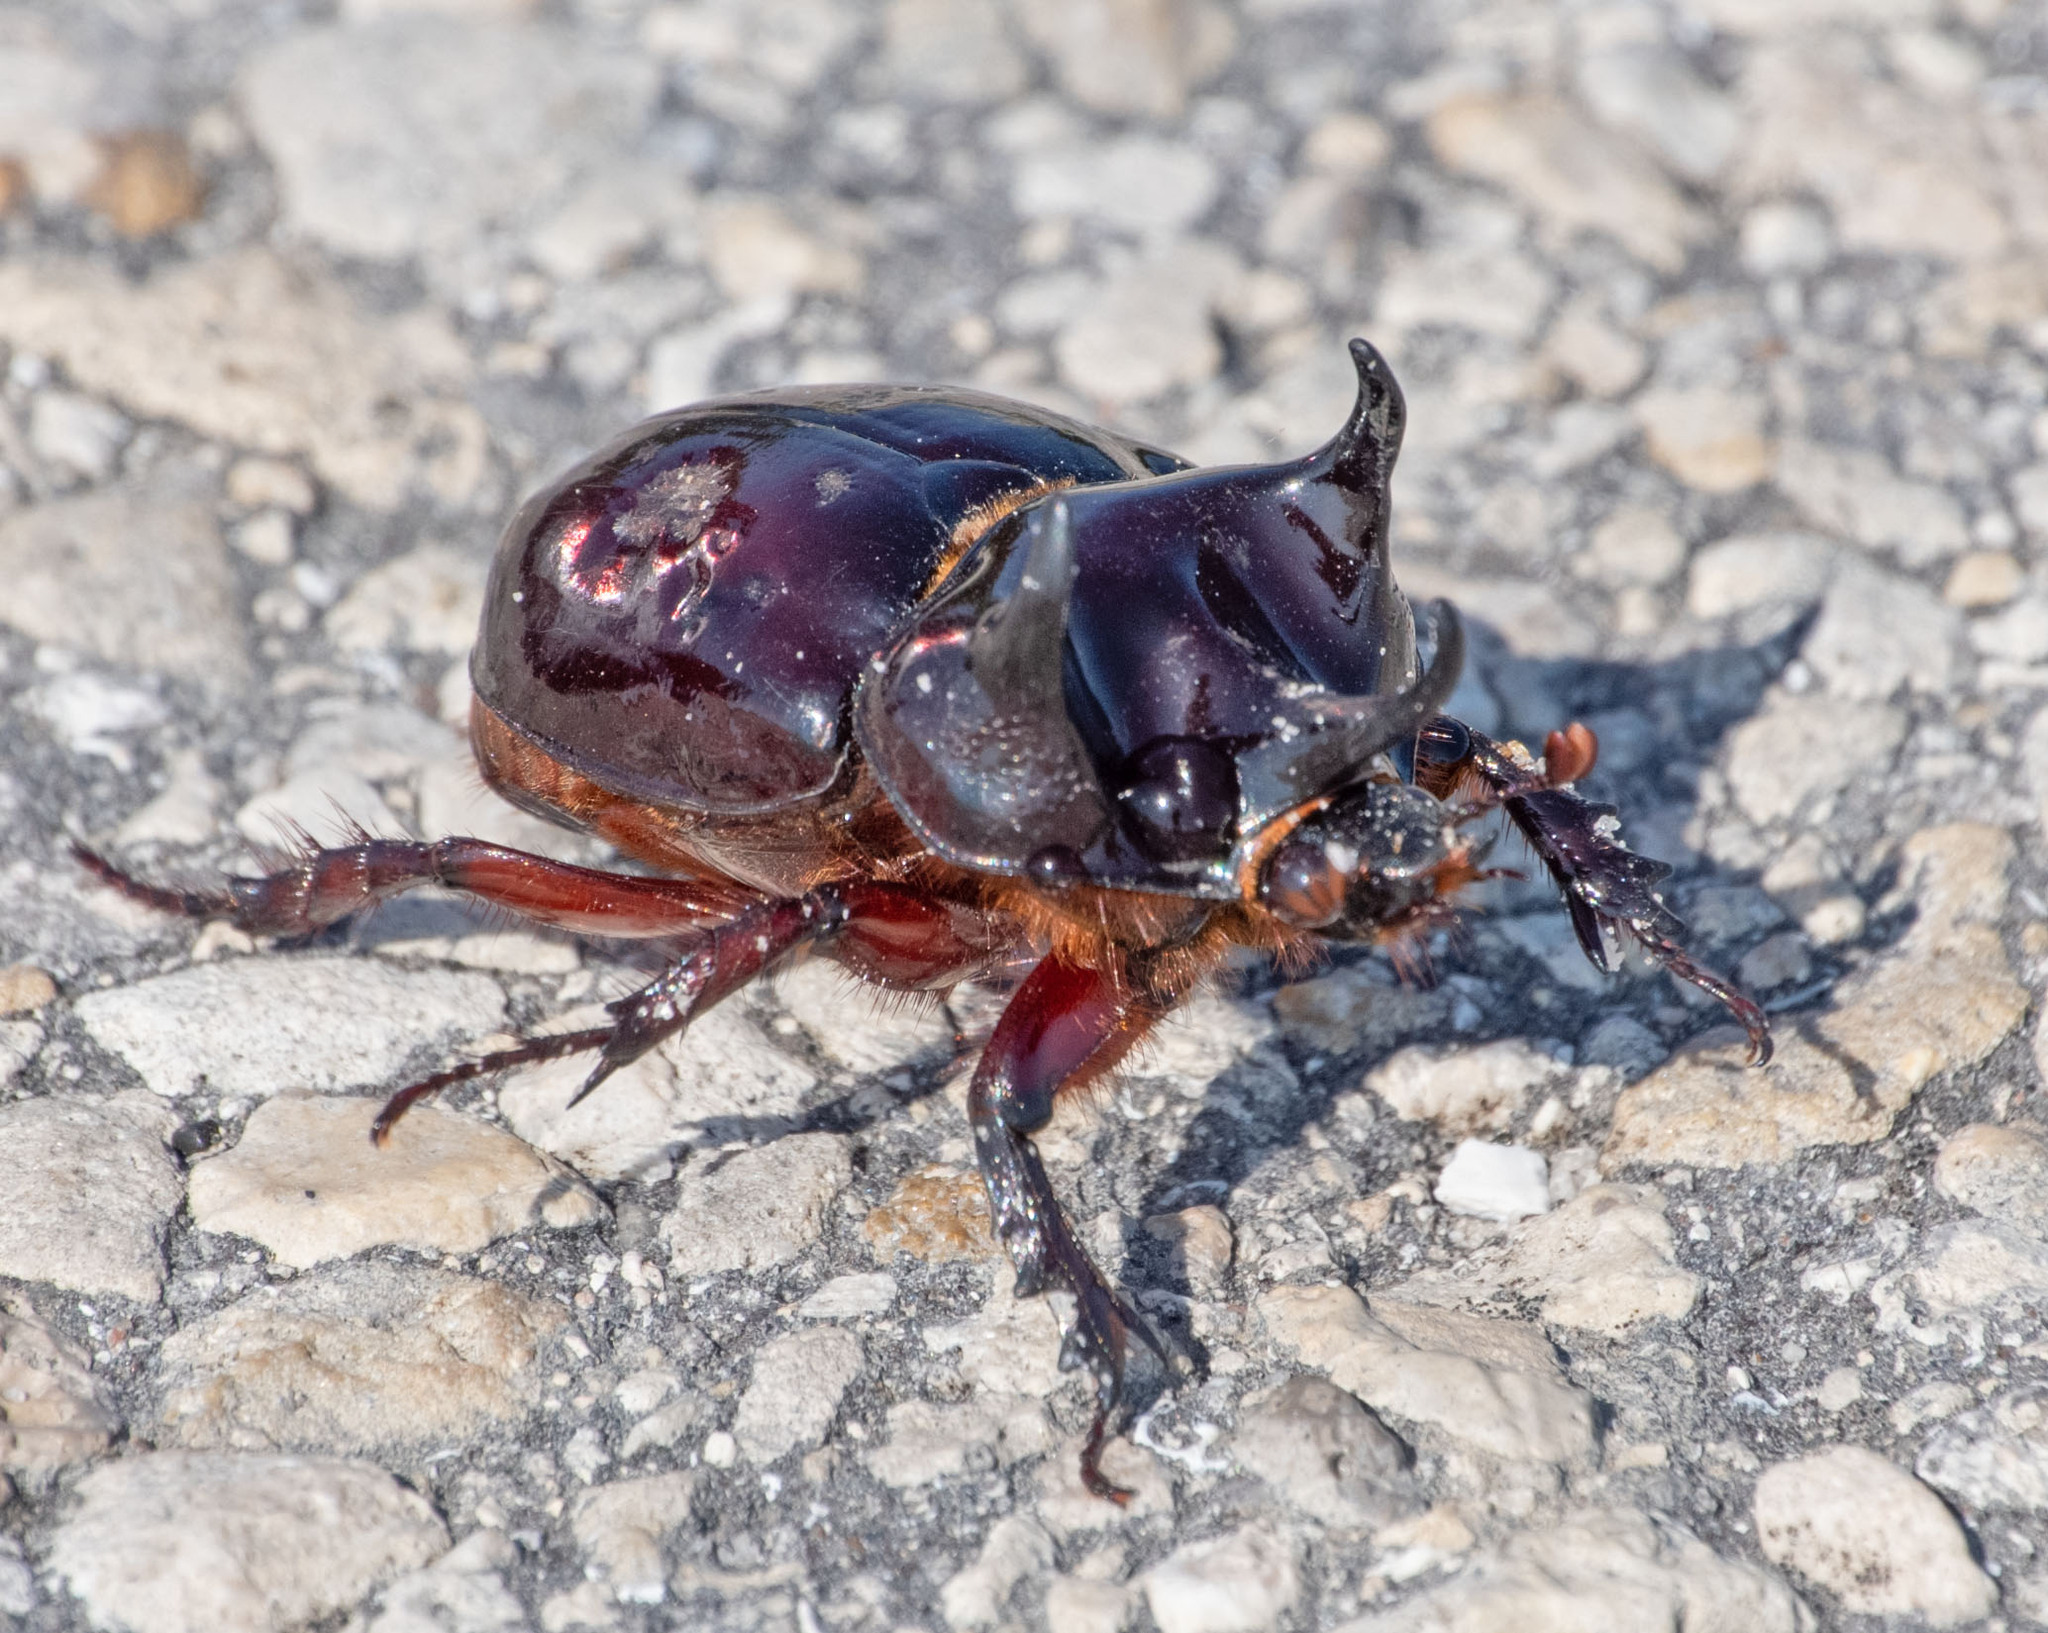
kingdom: Animalia
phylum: Arthropoda
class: Insecta
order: Coleoptera
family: Scarabaeidae
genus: Strategus
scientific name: Strategus antaeus
